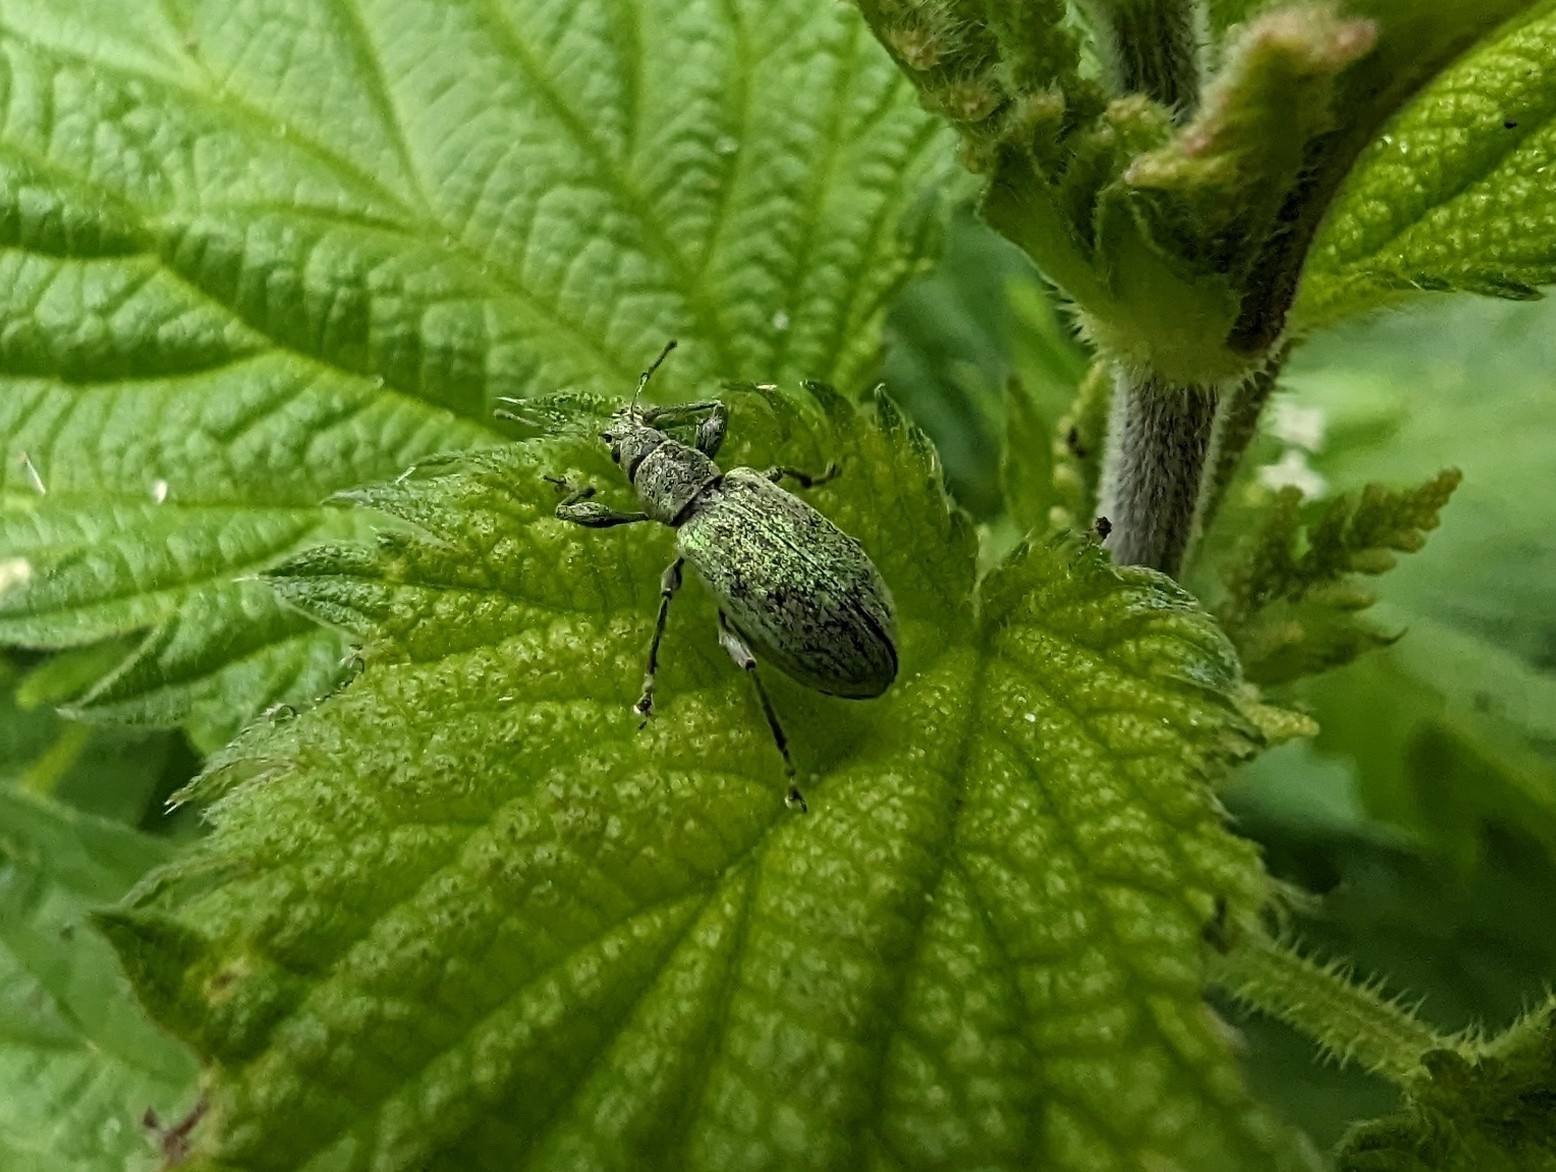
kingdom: Animalia
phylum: Arthropoda
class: Insecta
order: Coleoptera
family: Curculionidae
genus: Phyllobius
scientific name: Phyllobius pomaceus
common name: Green nettle weevil
